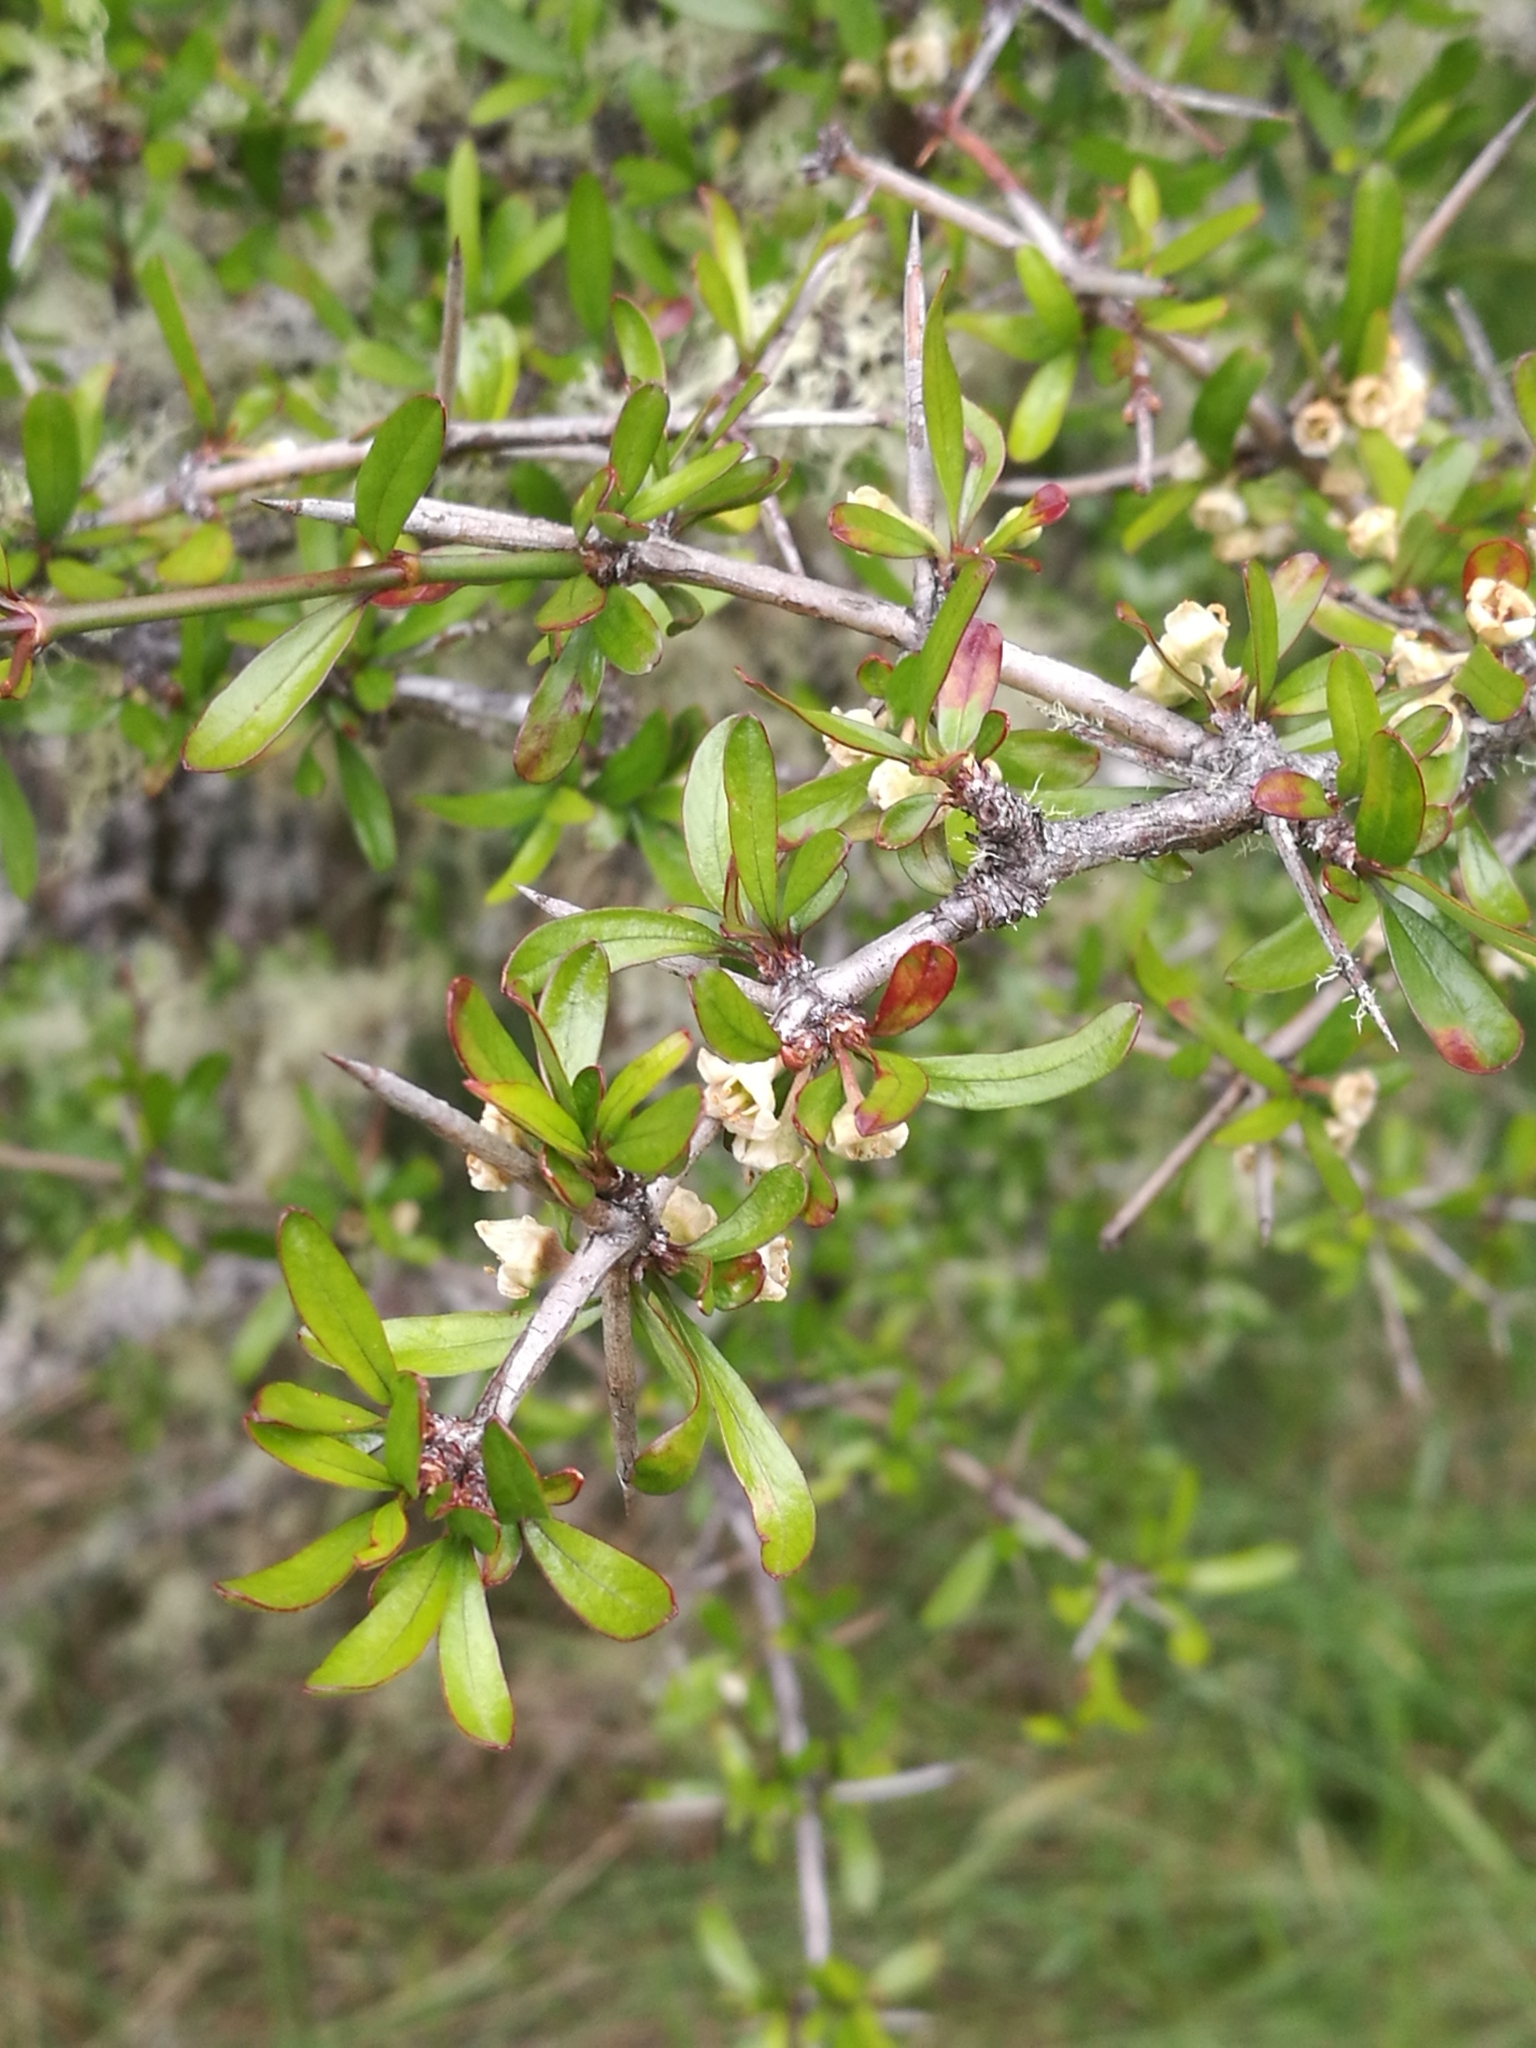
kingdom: Plantae
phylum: Tracheophyta
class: Magnoliopsida
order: Rosales
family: Rhamnaceae
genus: Discaria
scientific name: Discaria toumatou
